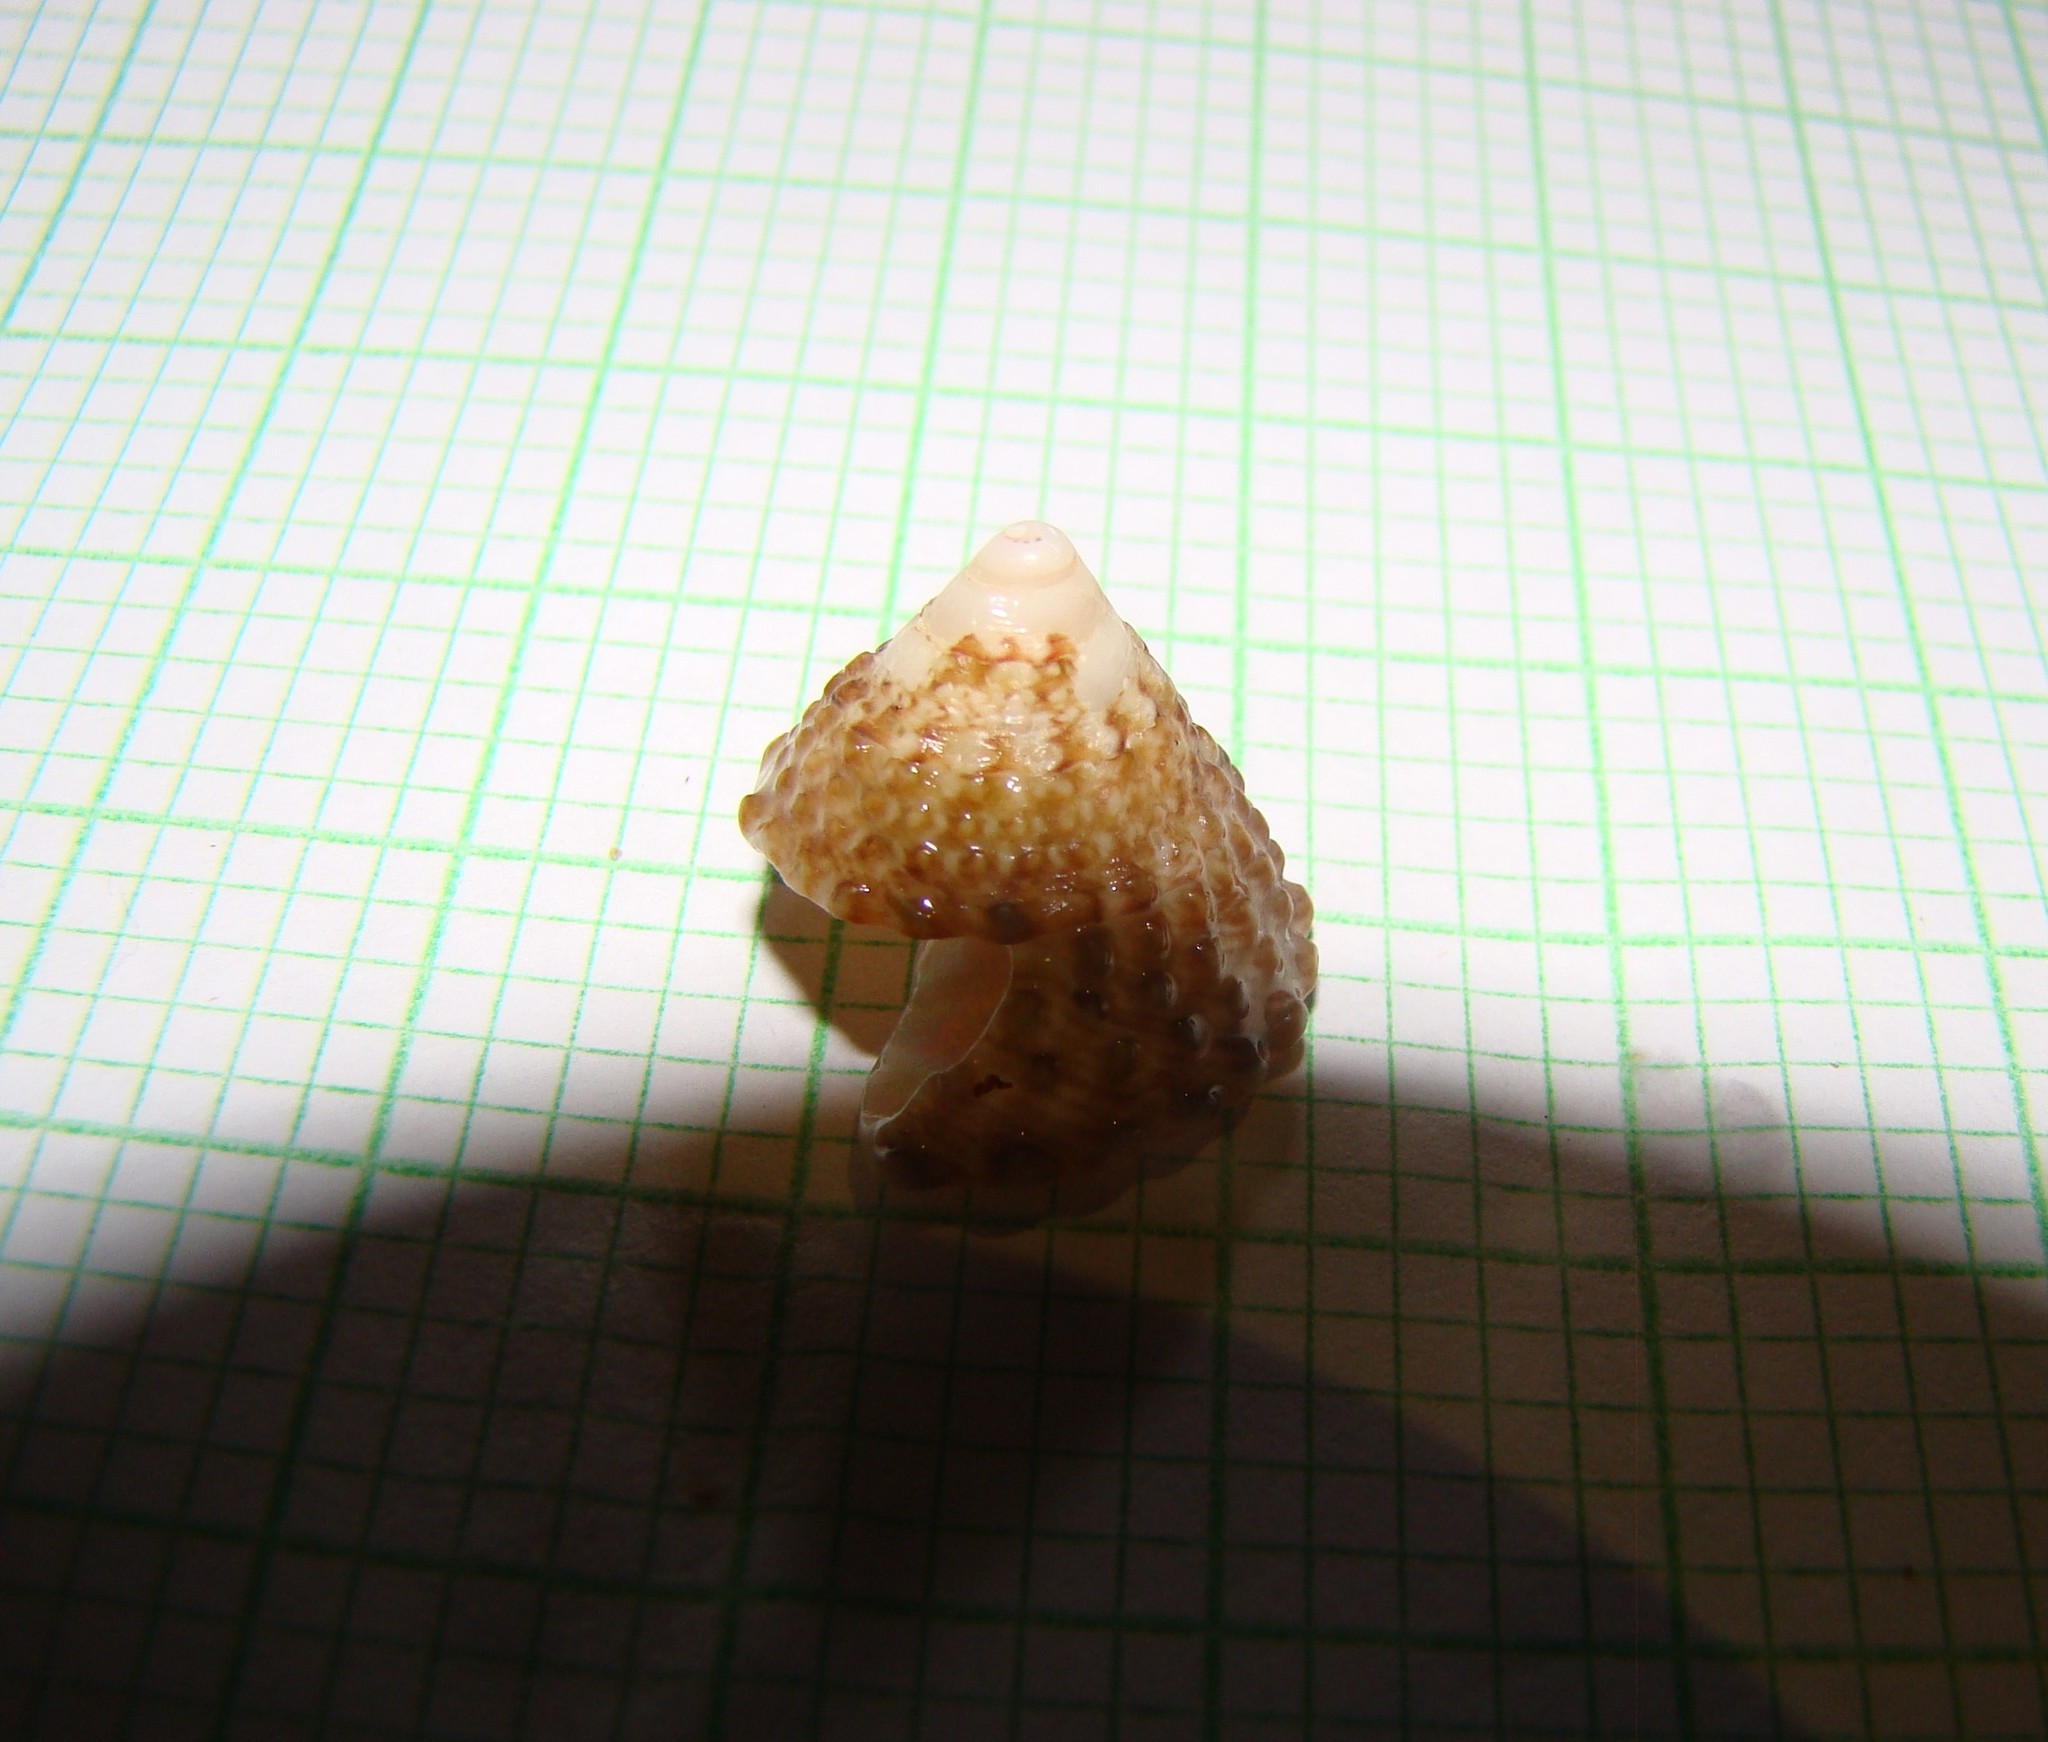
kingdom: Animalia
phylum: Mollusca
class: Gastropoda
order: Trochida
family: Trochidae
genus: Coelotrochus
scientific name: Coelotrochus viridis
